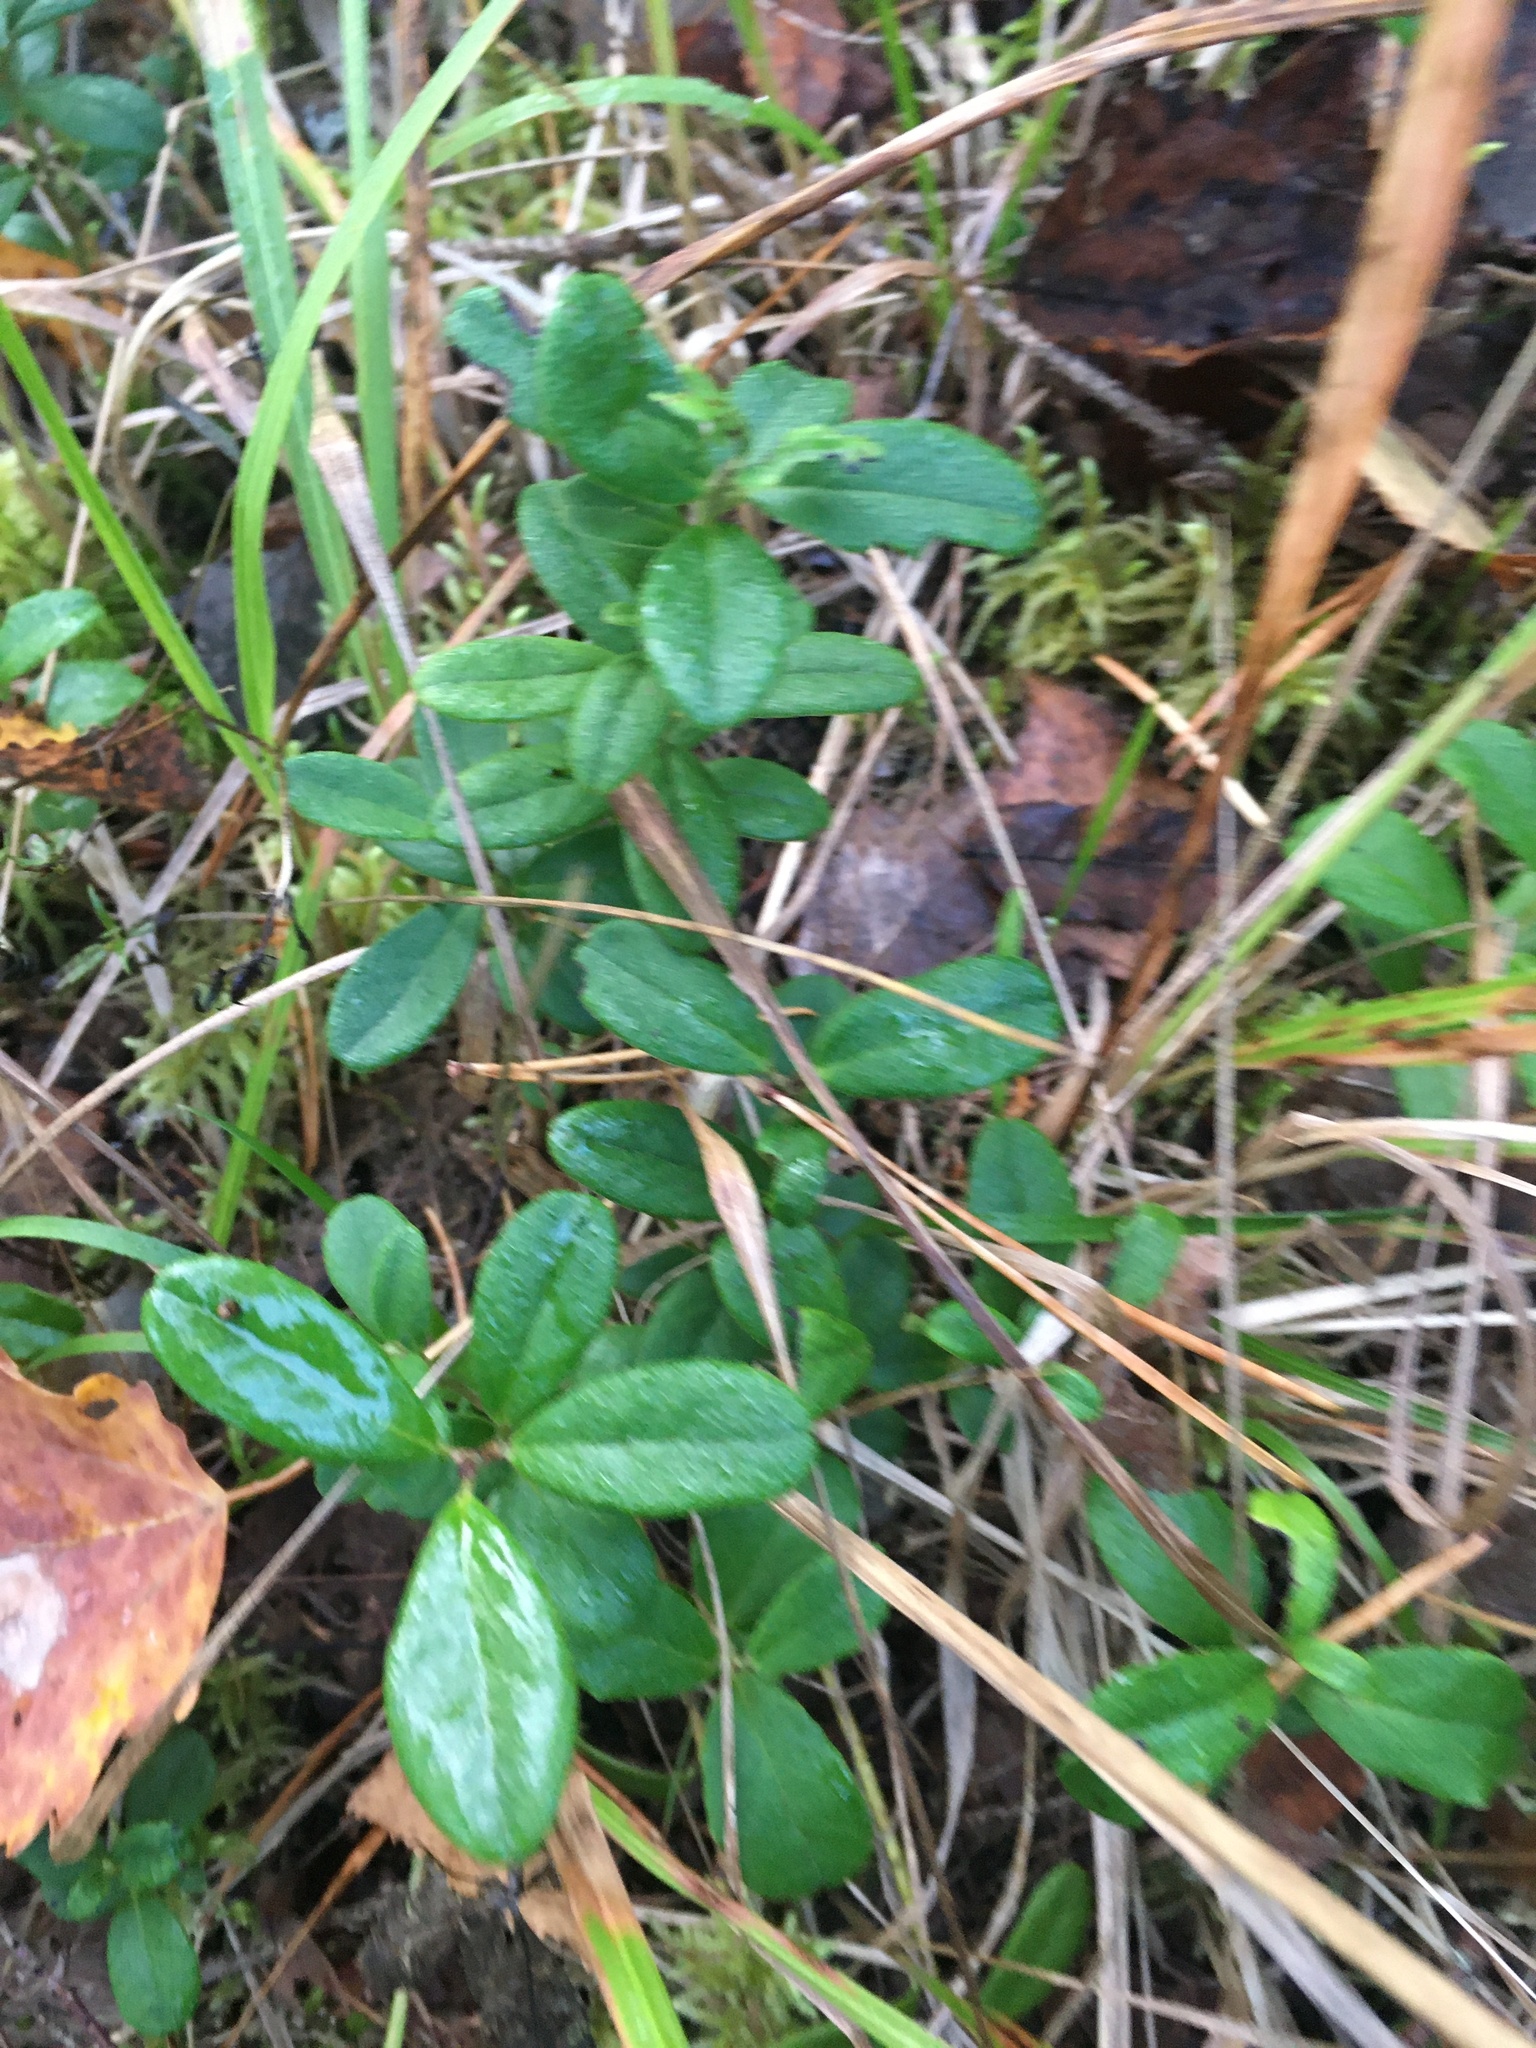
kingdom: Plantae
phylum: Tracheophyta
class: Magnoliopsida
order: Ericales
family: Ericaceae
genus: Vaccinium
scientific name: Vaccinium vitis-idaea
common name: Cowberry
